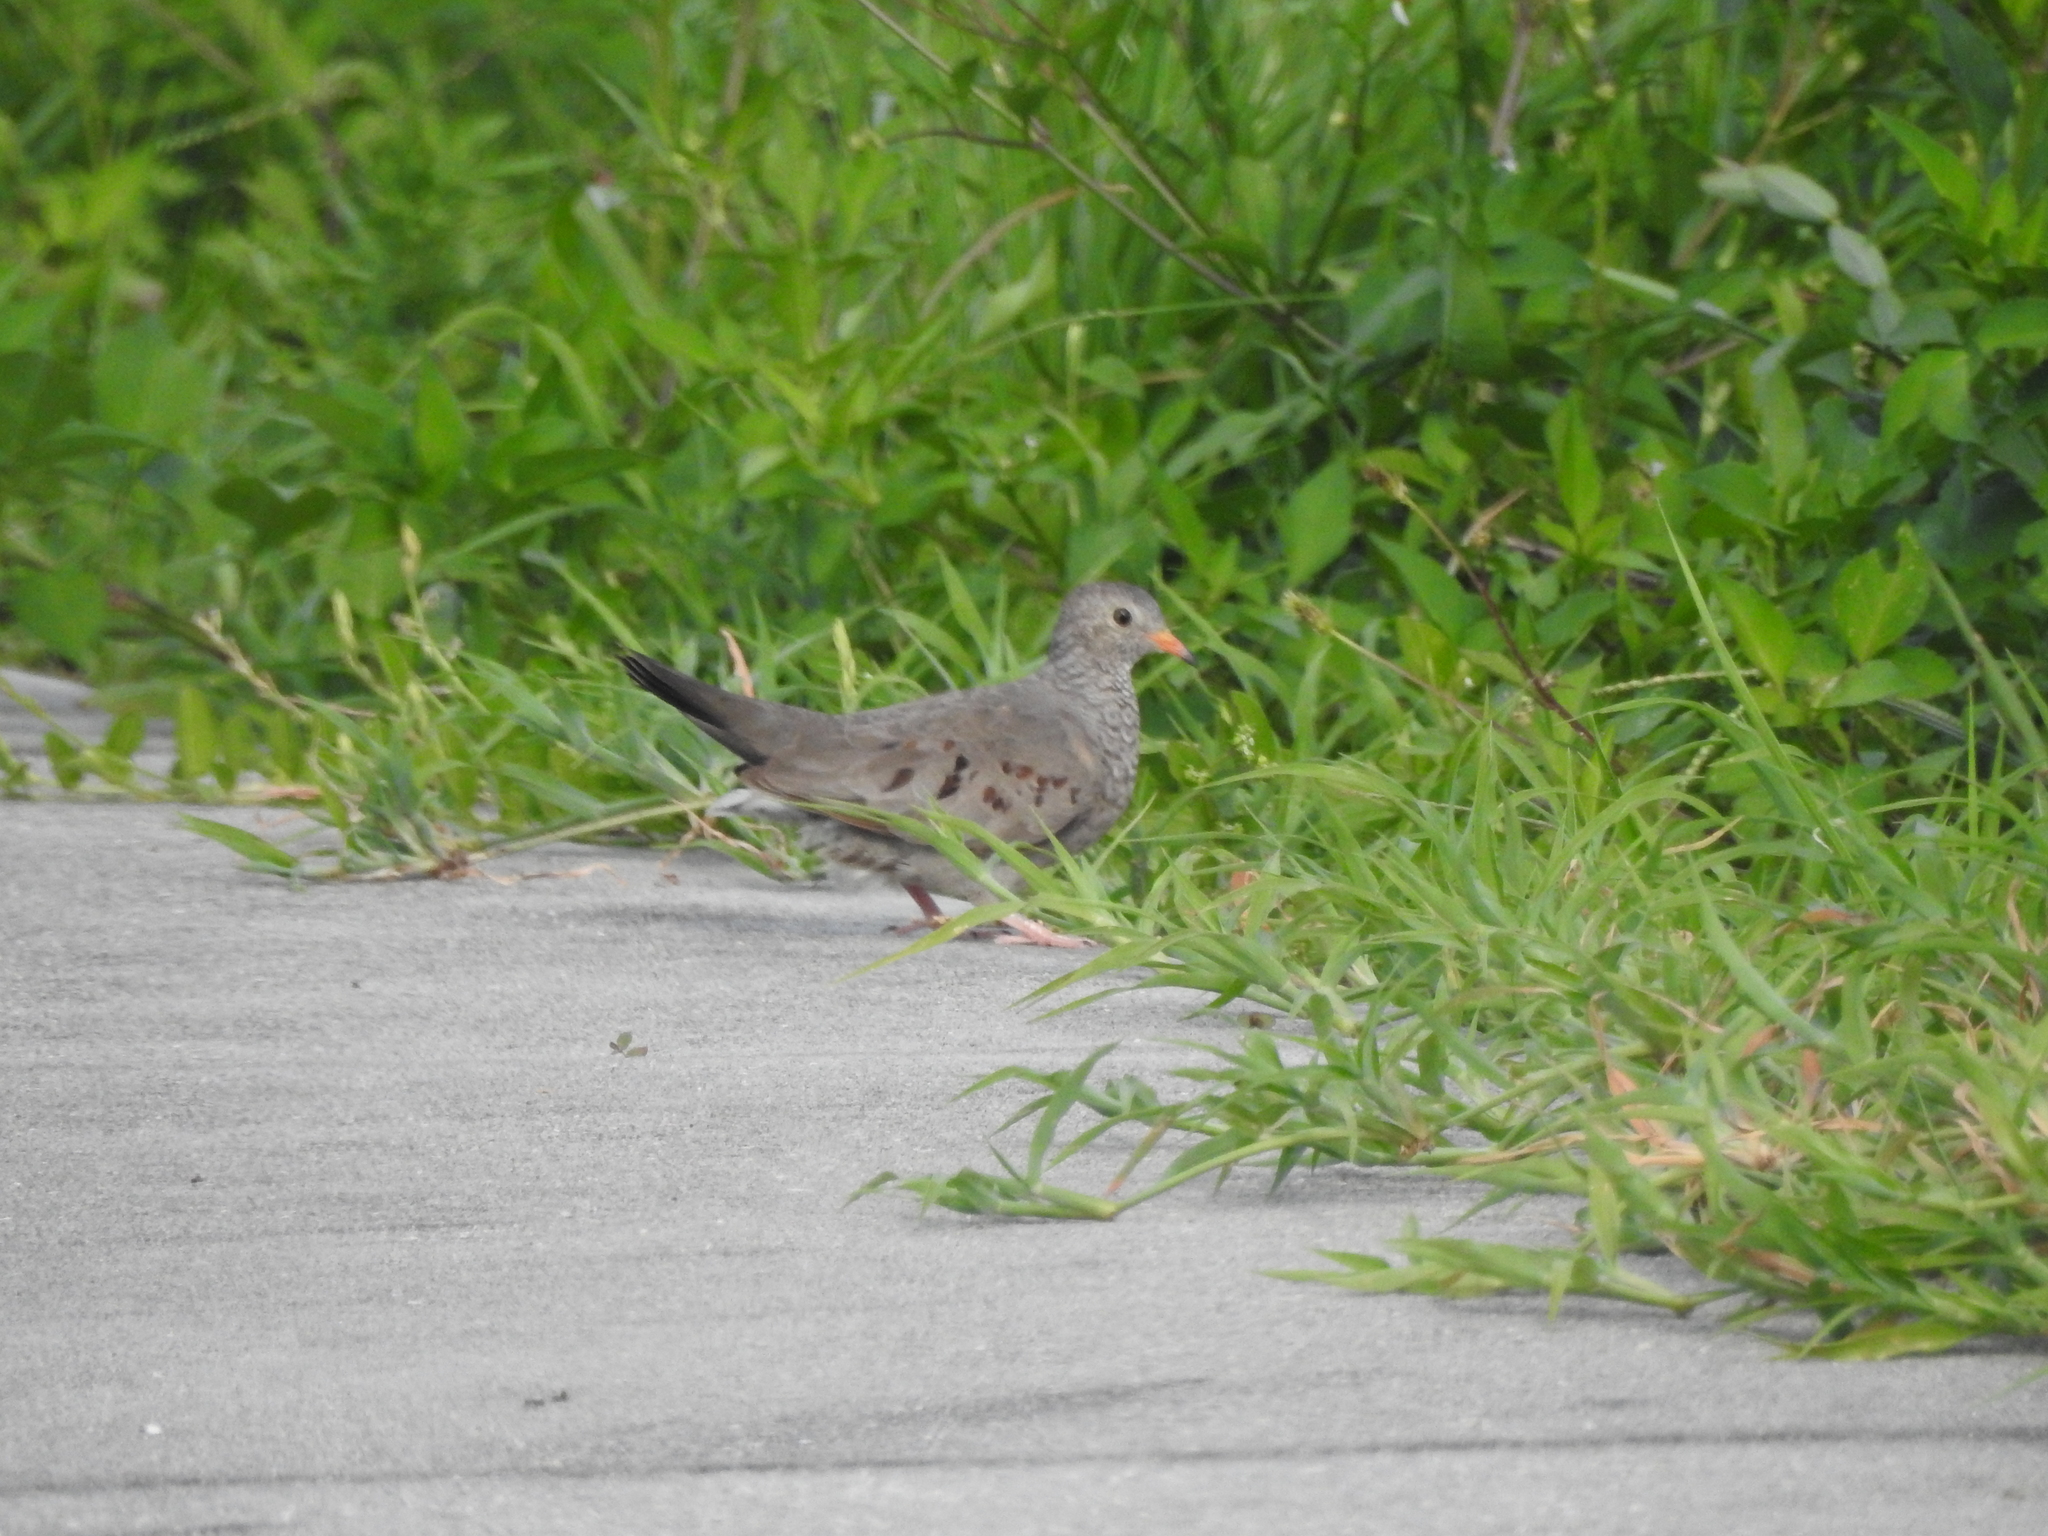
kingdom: Animalia
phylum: Chordata
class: Aves
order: Columbiformes
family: Columbidae
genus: Columbina
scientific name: Columbina passerina
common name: Common ground-dove
